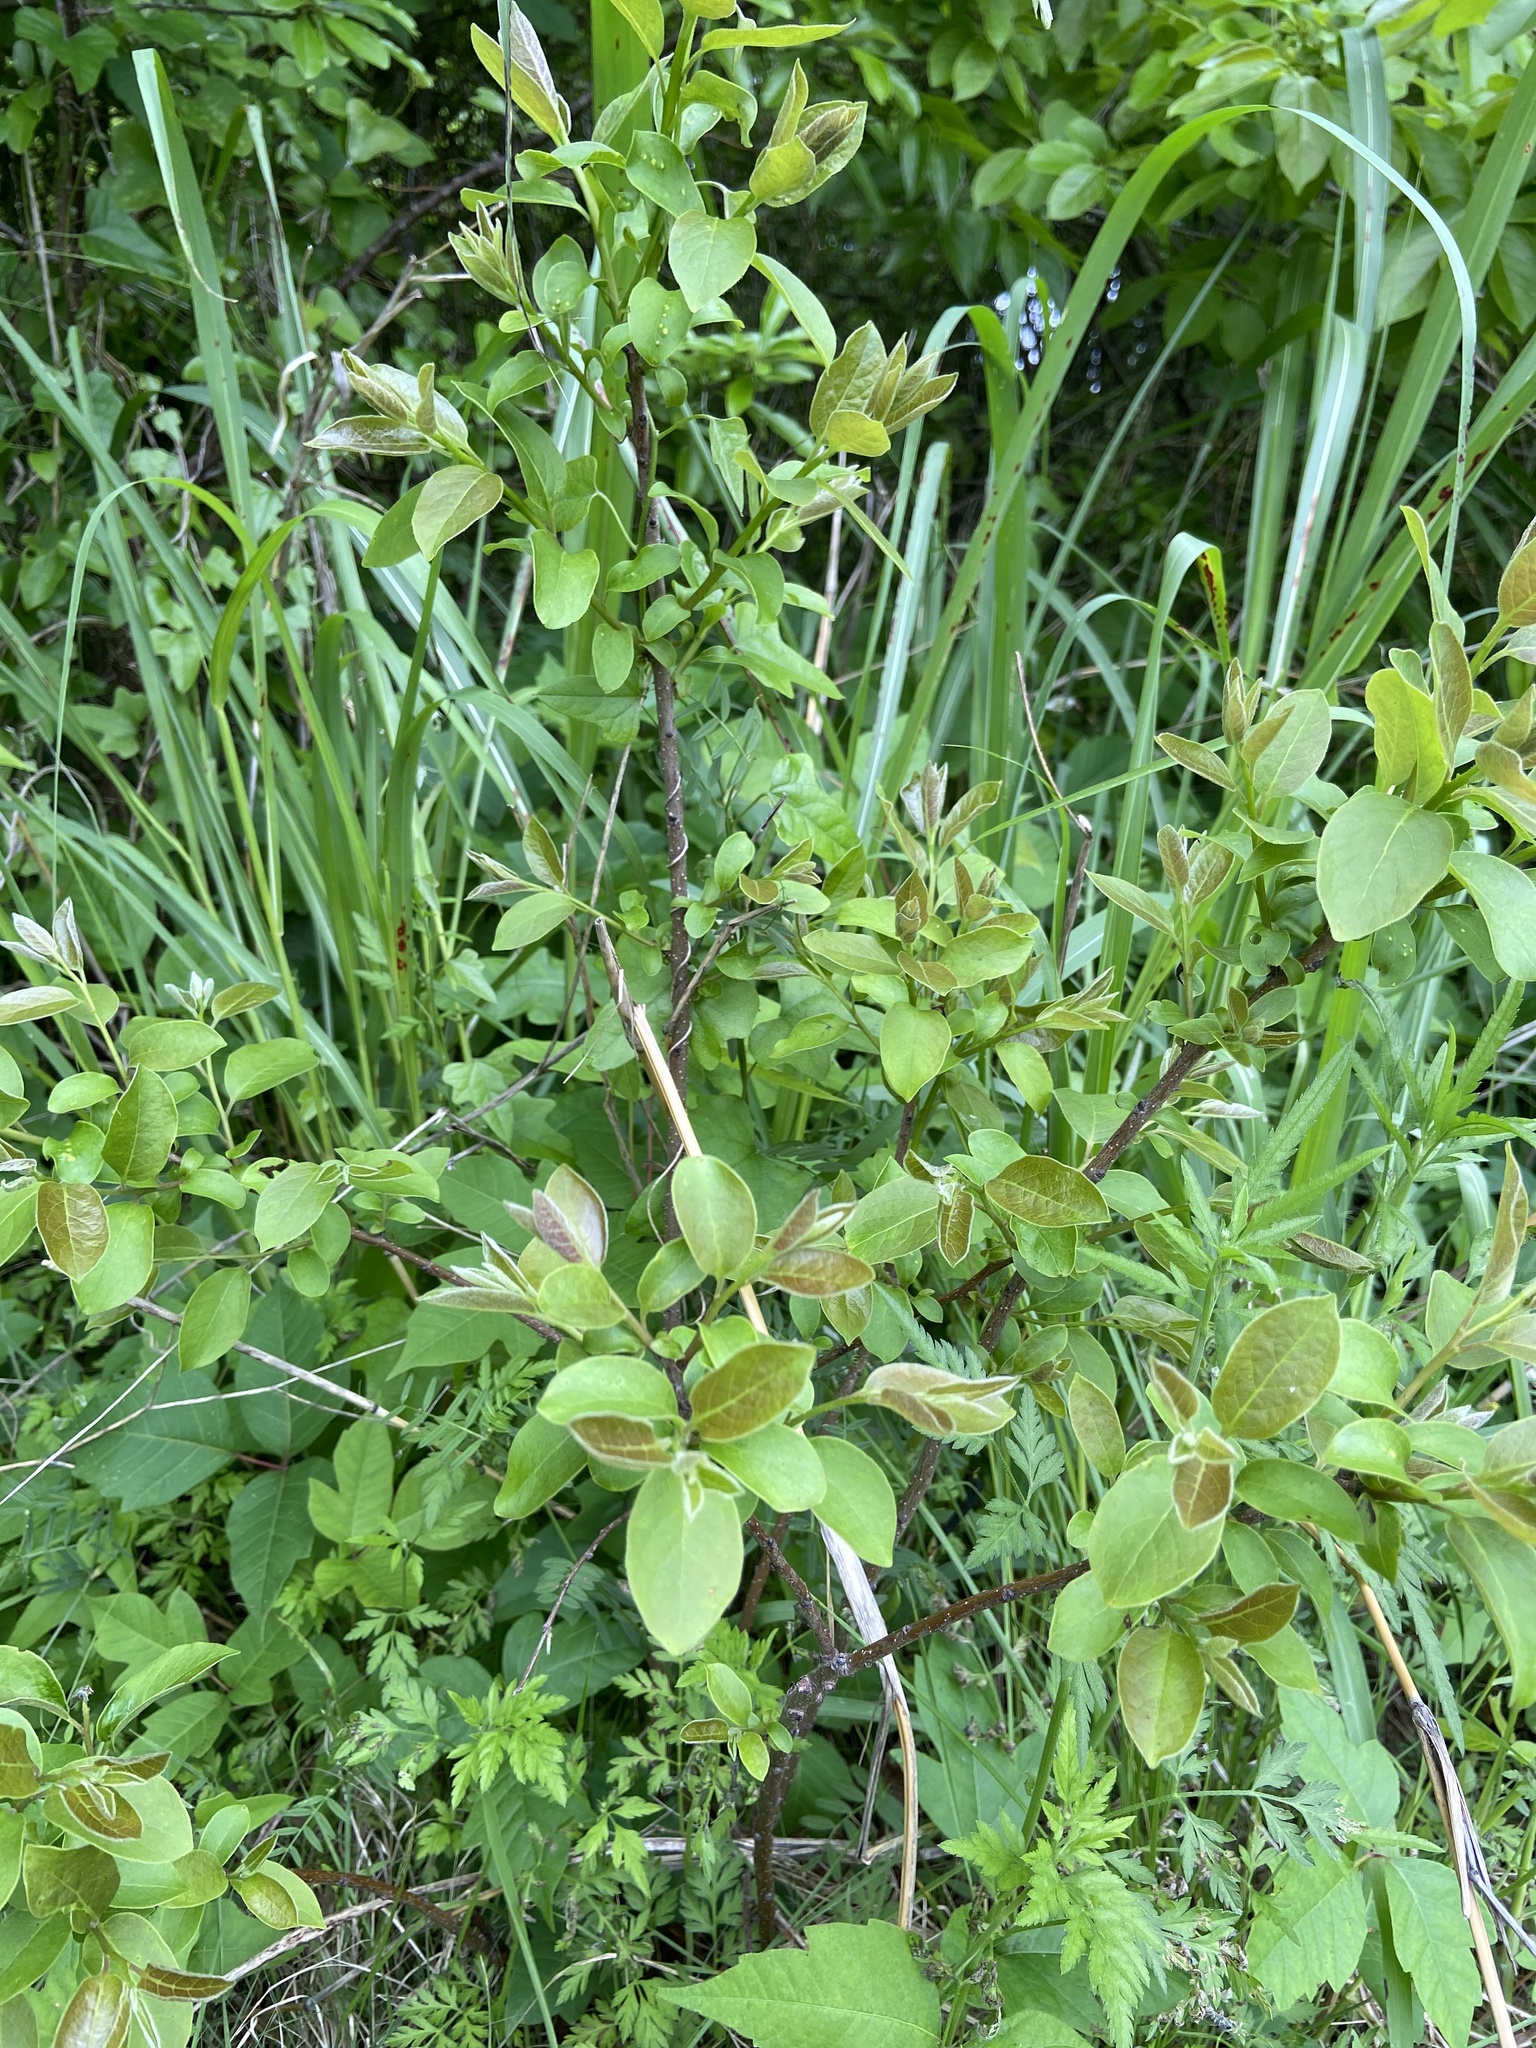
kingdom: Plantae
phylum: Tracheophyta
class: Magnoliopsida
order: Ericales
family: Ebenaceae
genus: Diospyros
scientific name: Diospyros virginiana
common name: Persimmon
